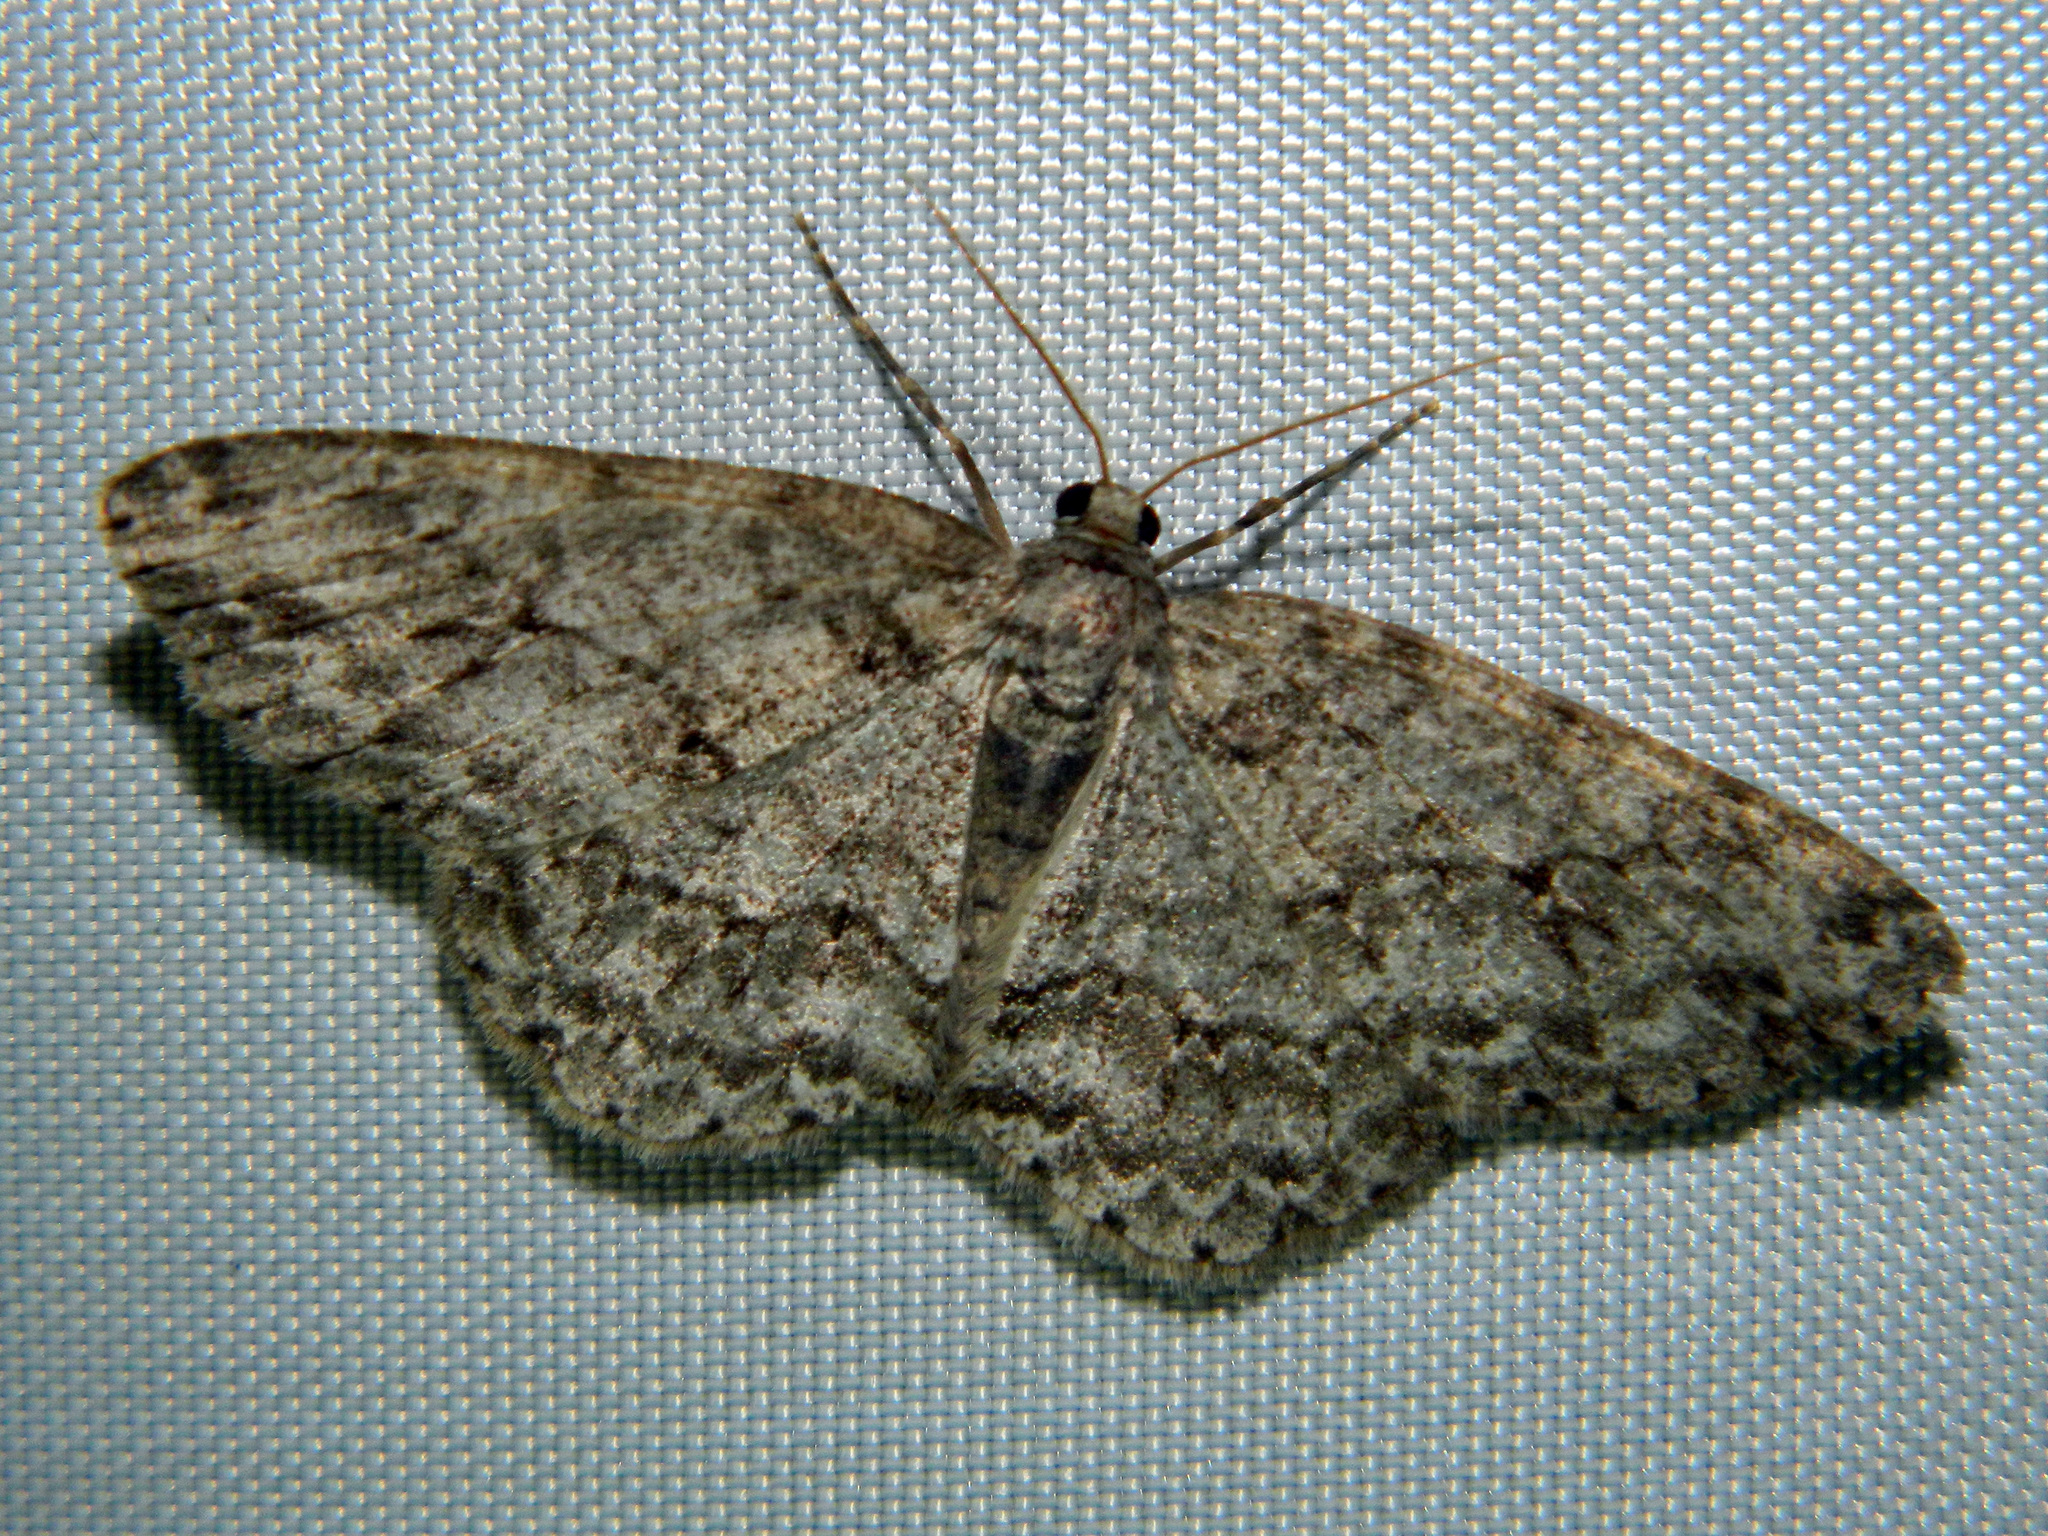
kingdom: Animalia
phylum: Arthropoda
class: Insecta
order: Lepidoptera
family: Geometridae
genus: Ectropis
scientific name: Ectropis crepuscularia
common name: Engrailed
